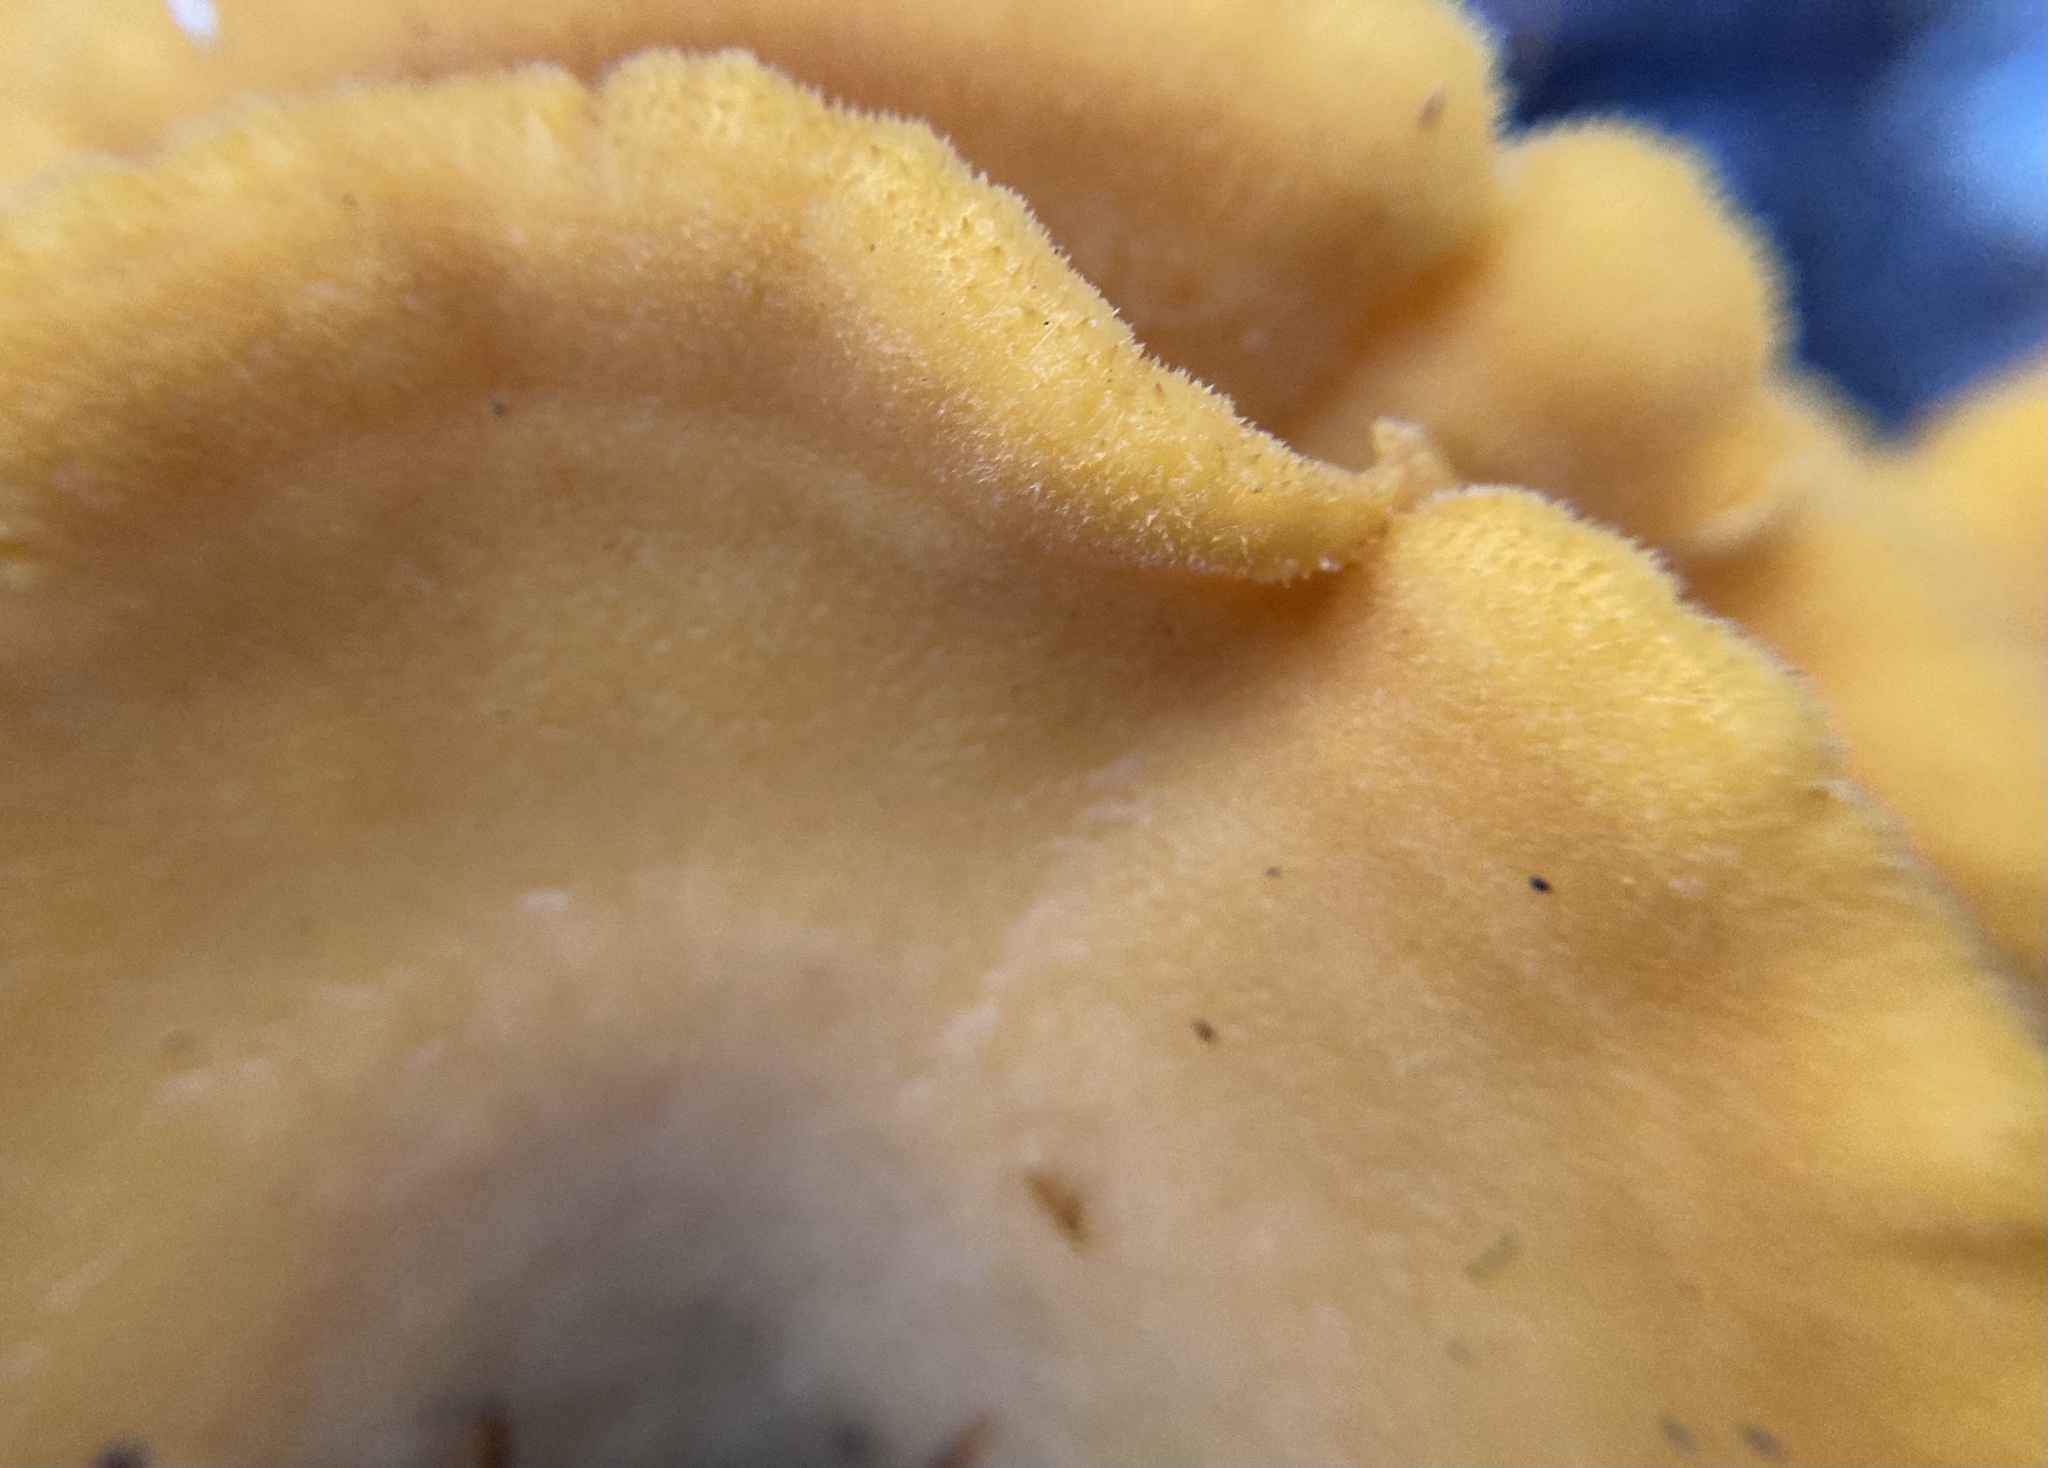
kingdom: Fungi
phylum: Basidiomycota
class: Agaricomycetes
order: Agaricales
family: Phyllotopsidaceae
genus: Phyllotopsis
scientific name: Phyllotopsis nidulans
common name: Orange mock oyster
